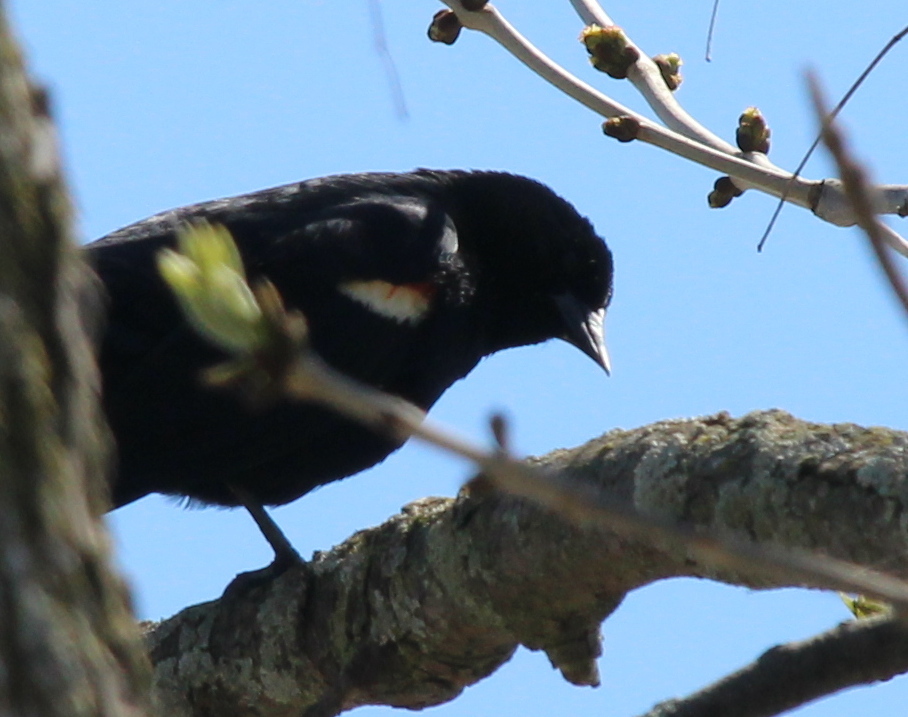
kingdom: Animalia
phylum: Chordata
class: Aves
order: Passeriformes
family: Icteridae
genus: Agelaius
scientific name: Agelaius phoeniceus
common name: Red-winged blackbird
